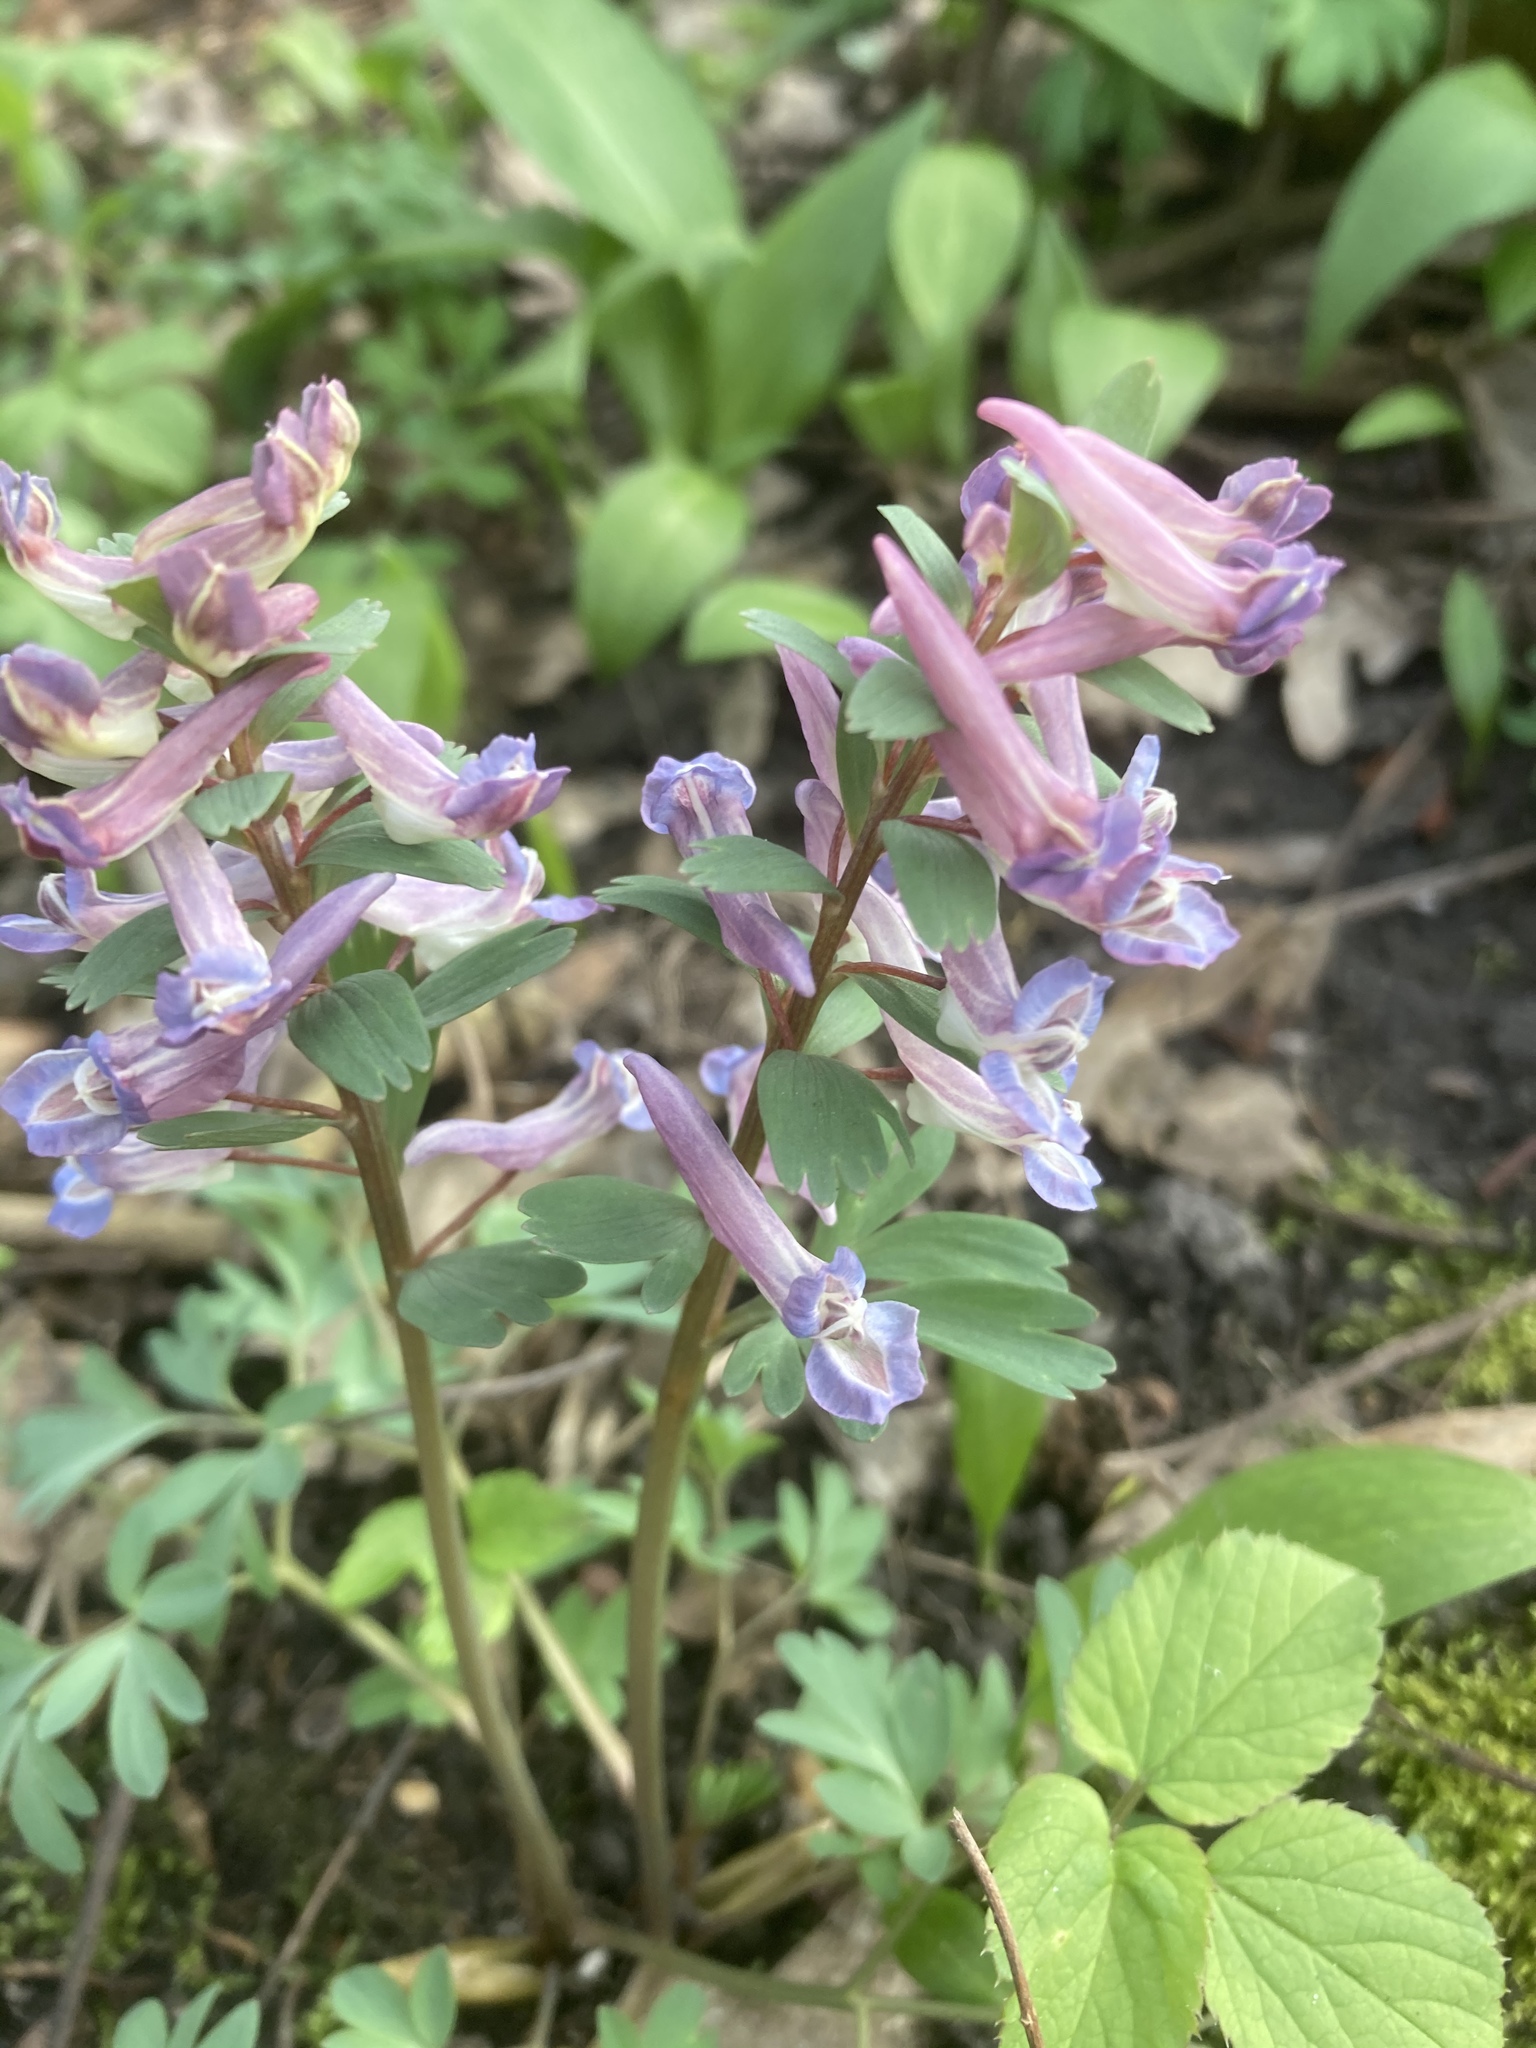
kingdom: Plantae
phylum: Tracheophyta
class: Magnoliopsida
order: Ranunculales
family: Papaveraceae
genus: Corydalis
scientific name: Corydalis solida
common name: Bird-in-a-bush
